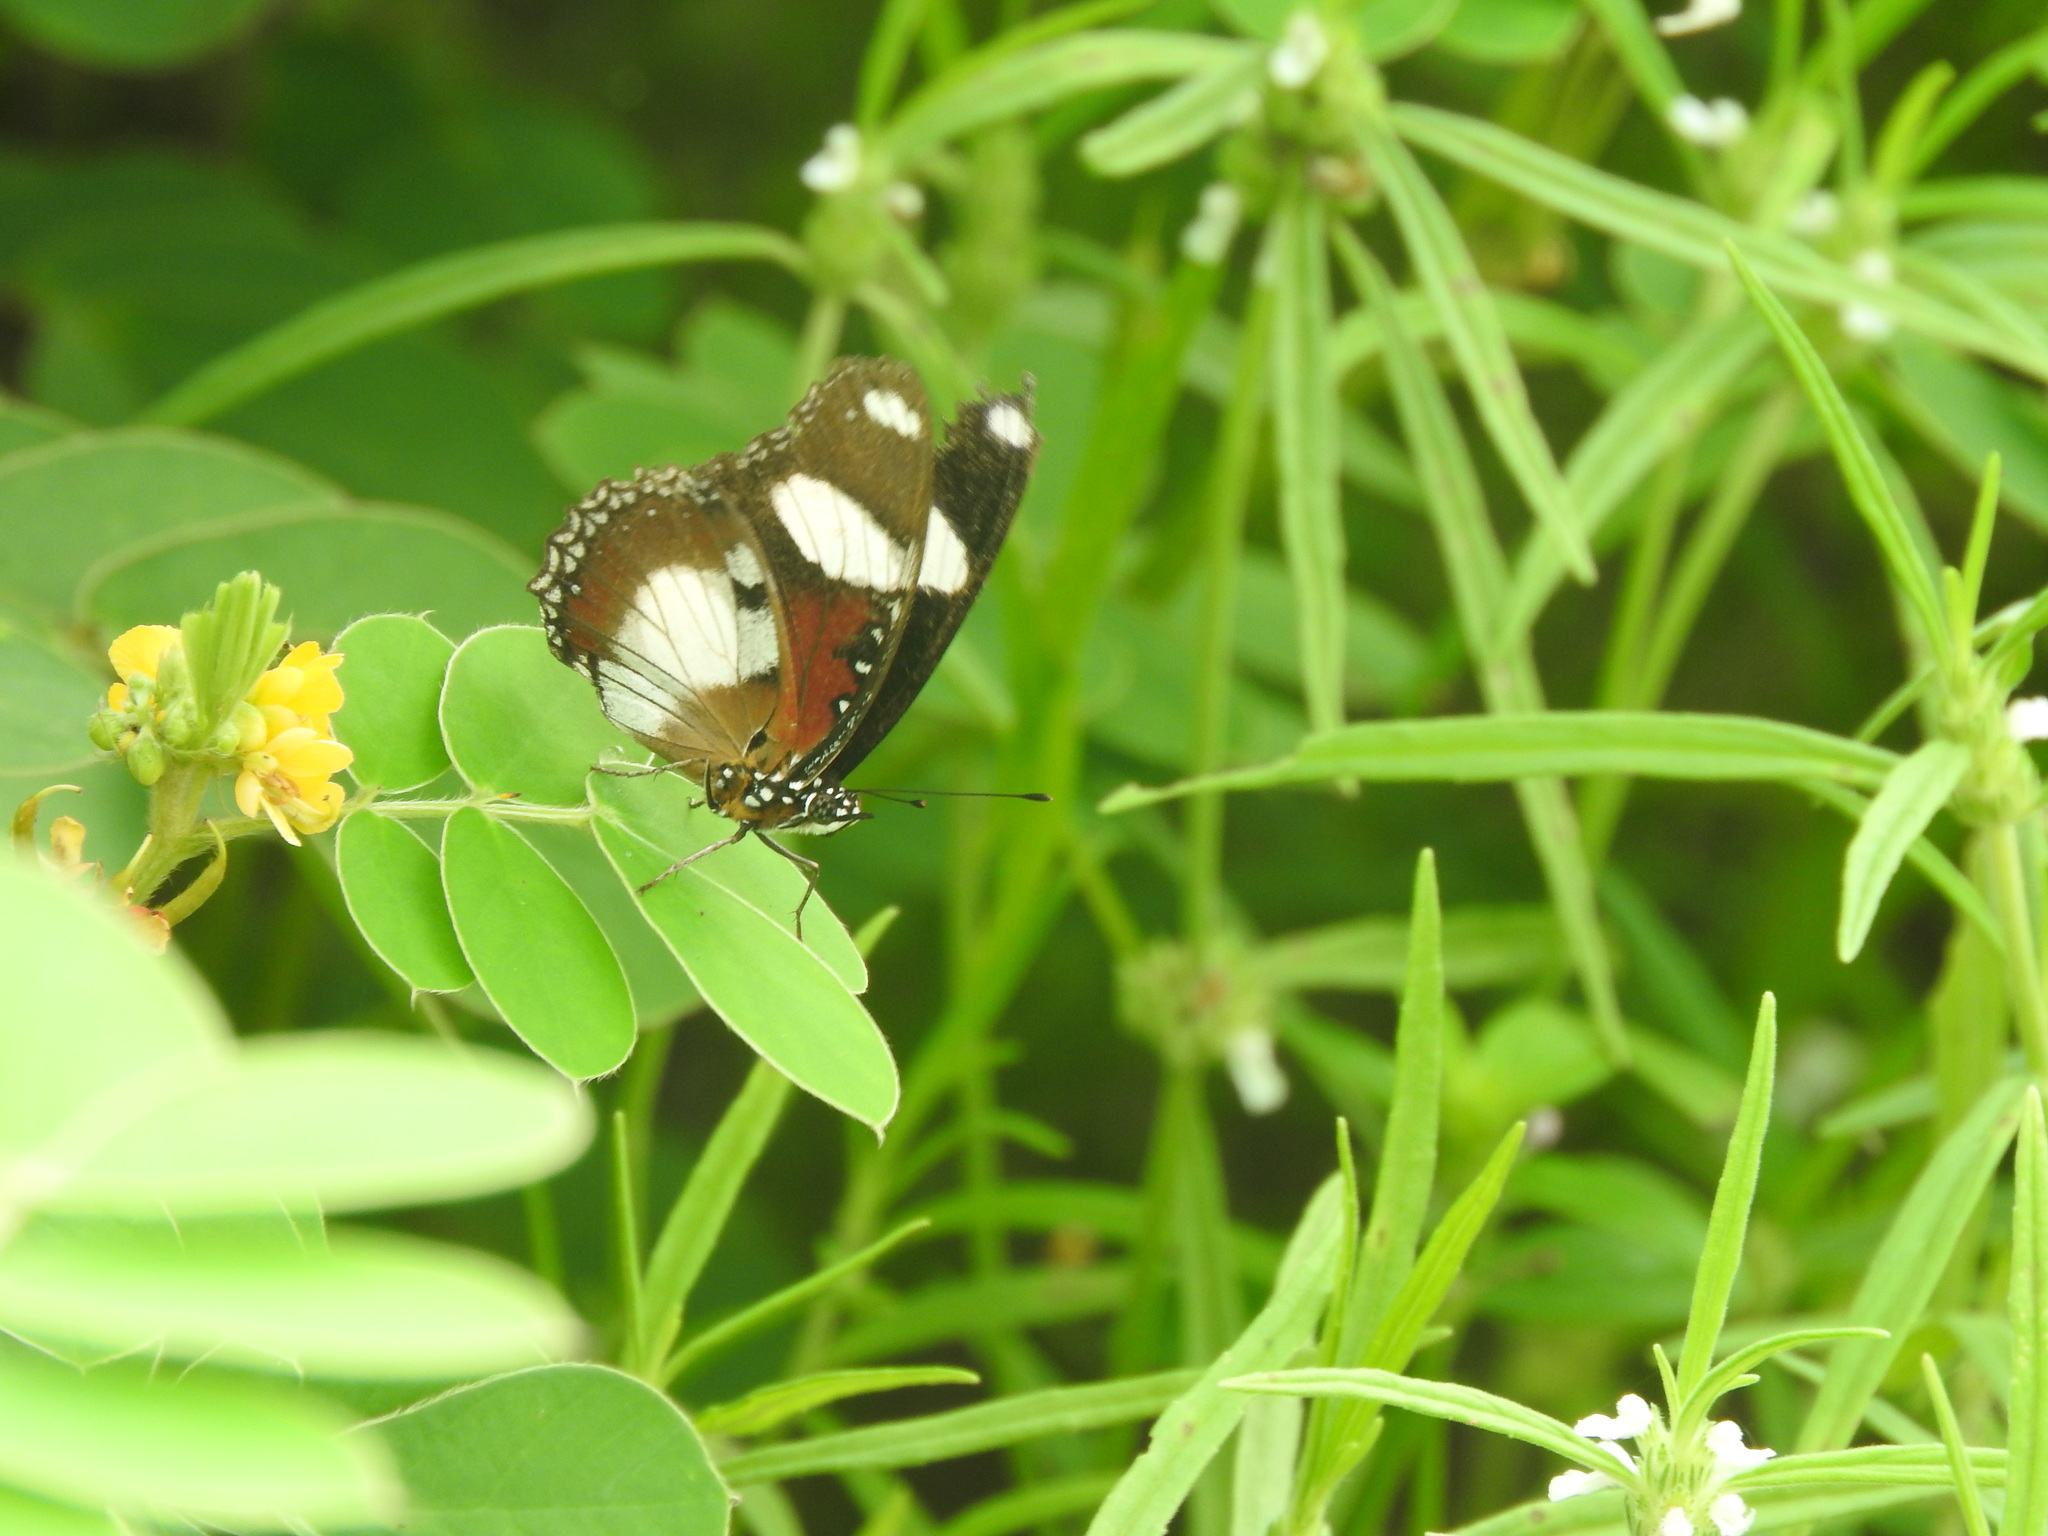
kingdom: Animalia
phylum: Arthropoda
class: Insecta
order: Lepidoptera
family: Nymphalidae
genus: Hypolimnas
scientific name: Hypolimnas misippus
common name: False plain tiger
